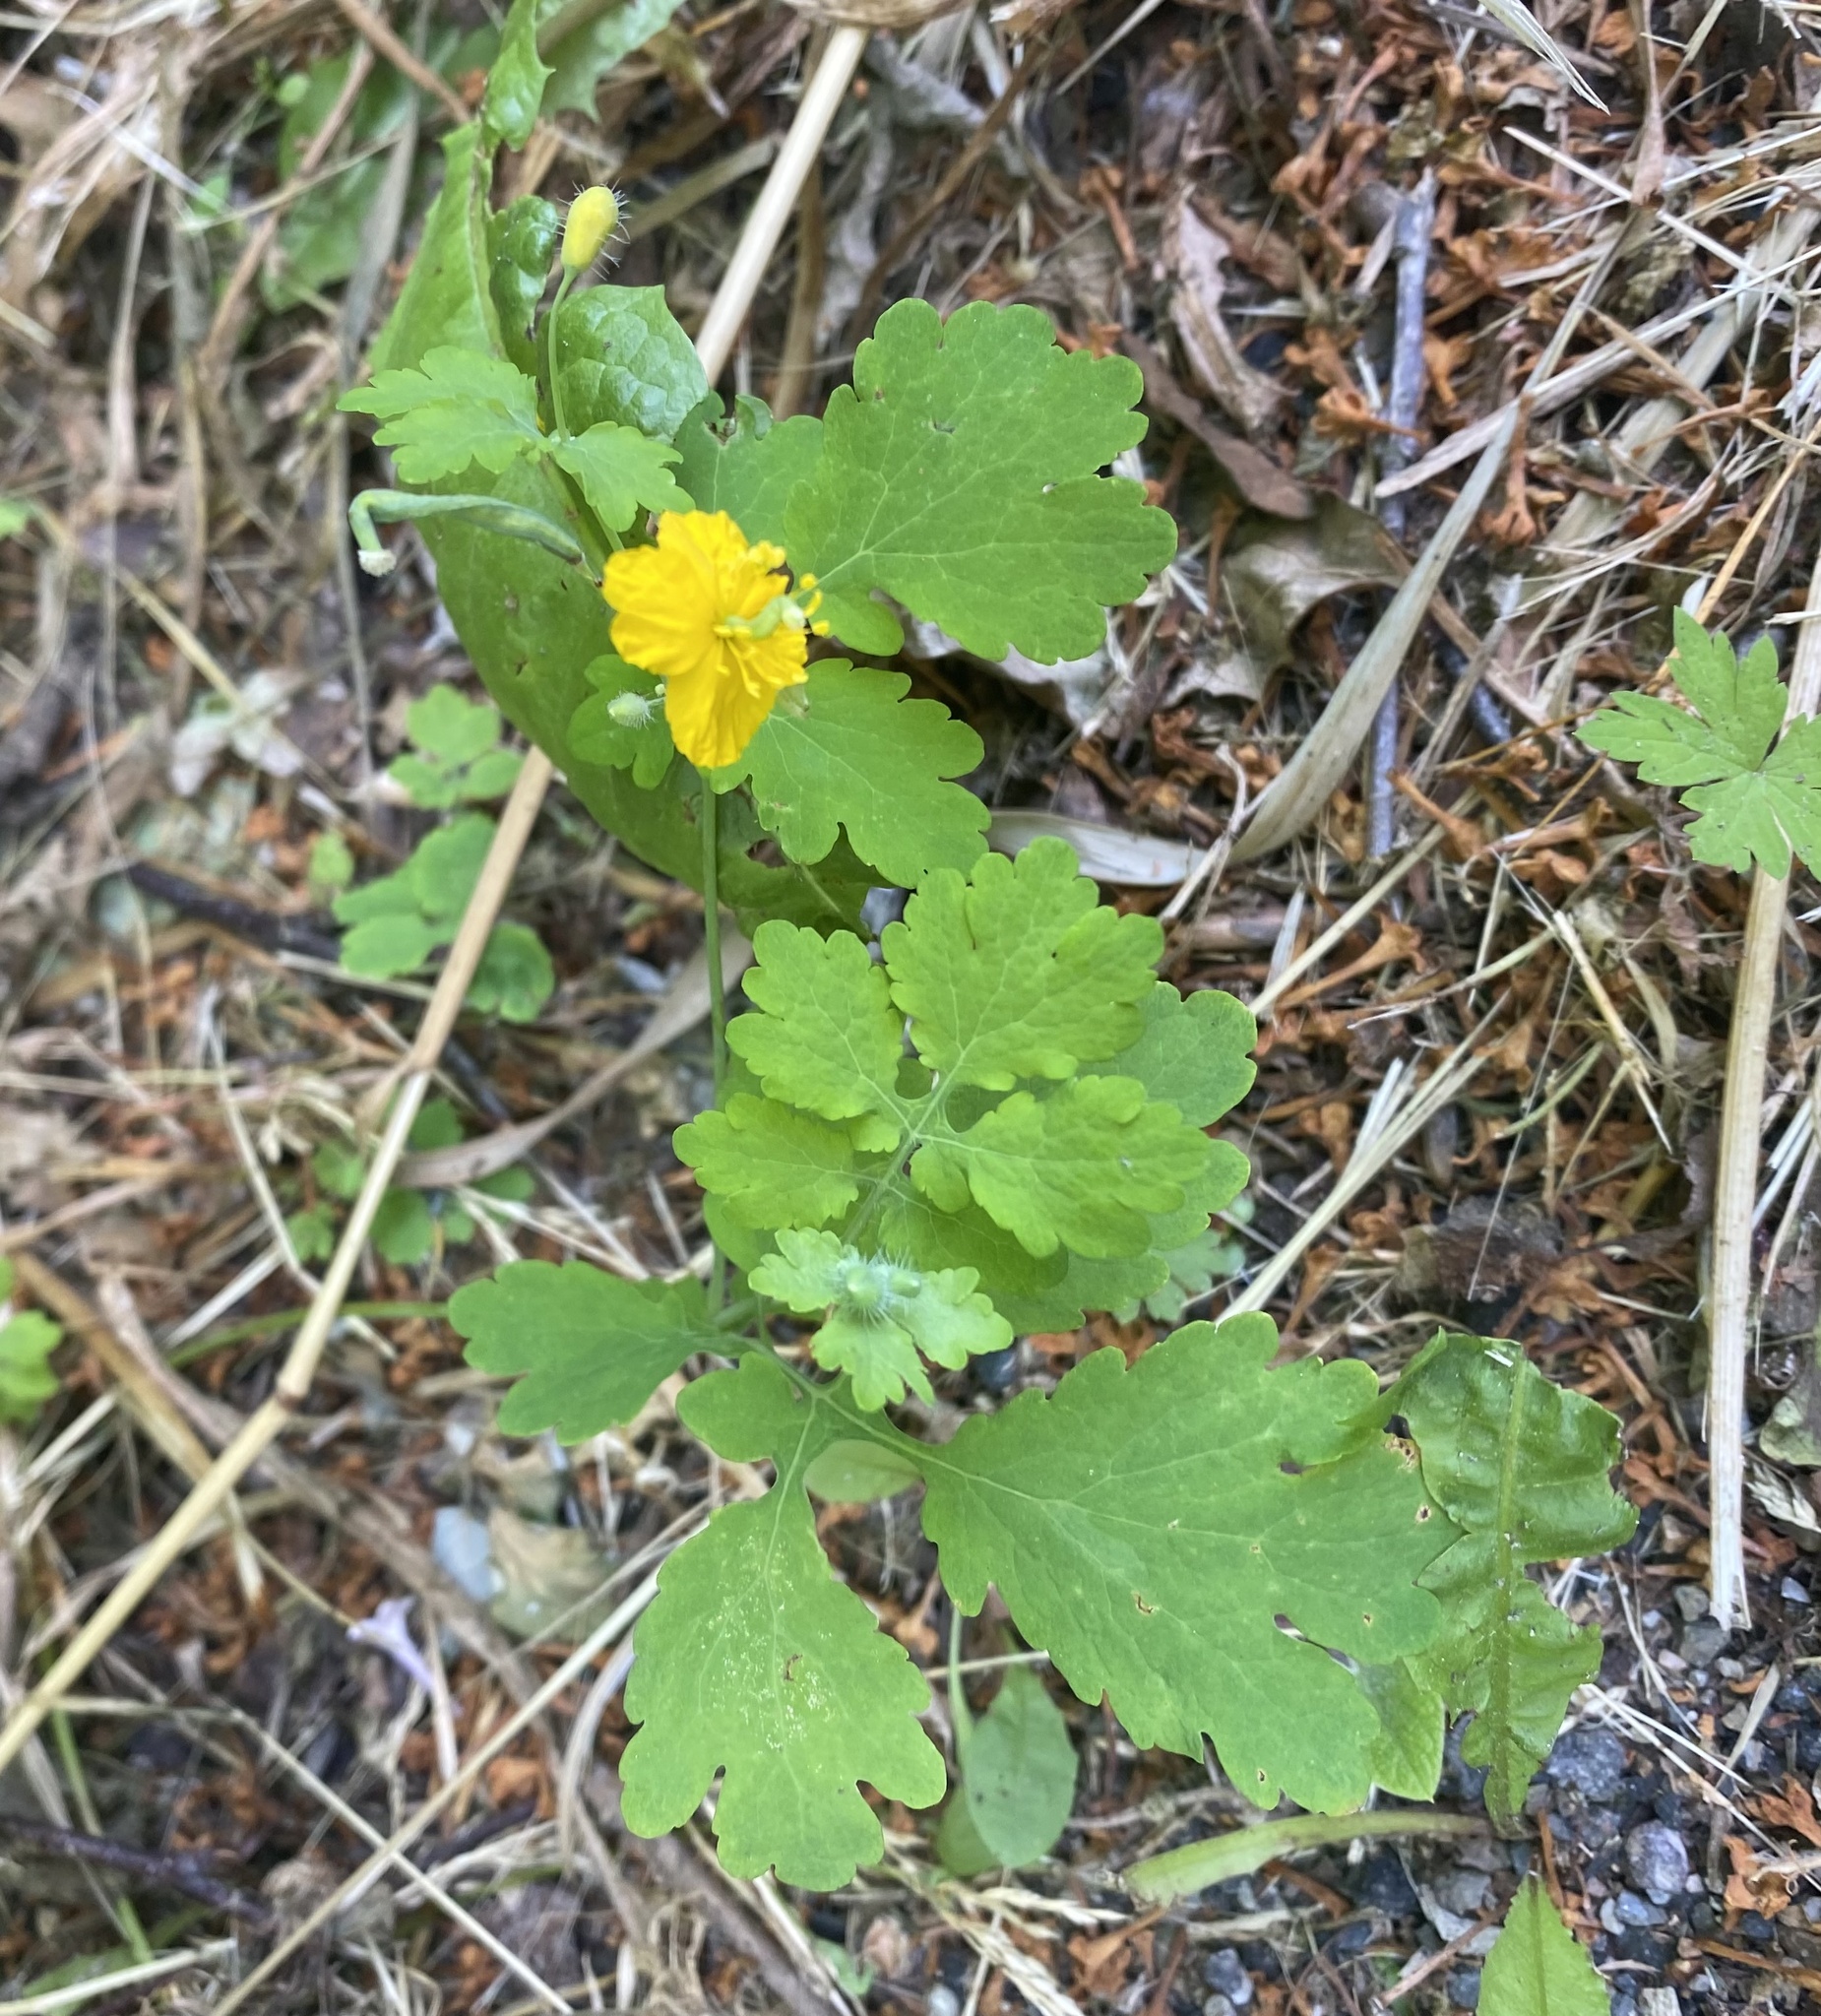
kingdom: Plantae
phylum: Tracheophyta
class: Magnoliopsida
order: Ranunculales
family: Papaveraceae
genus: Chelidonium
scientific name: Chelidonium majus
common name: Greater celandine
